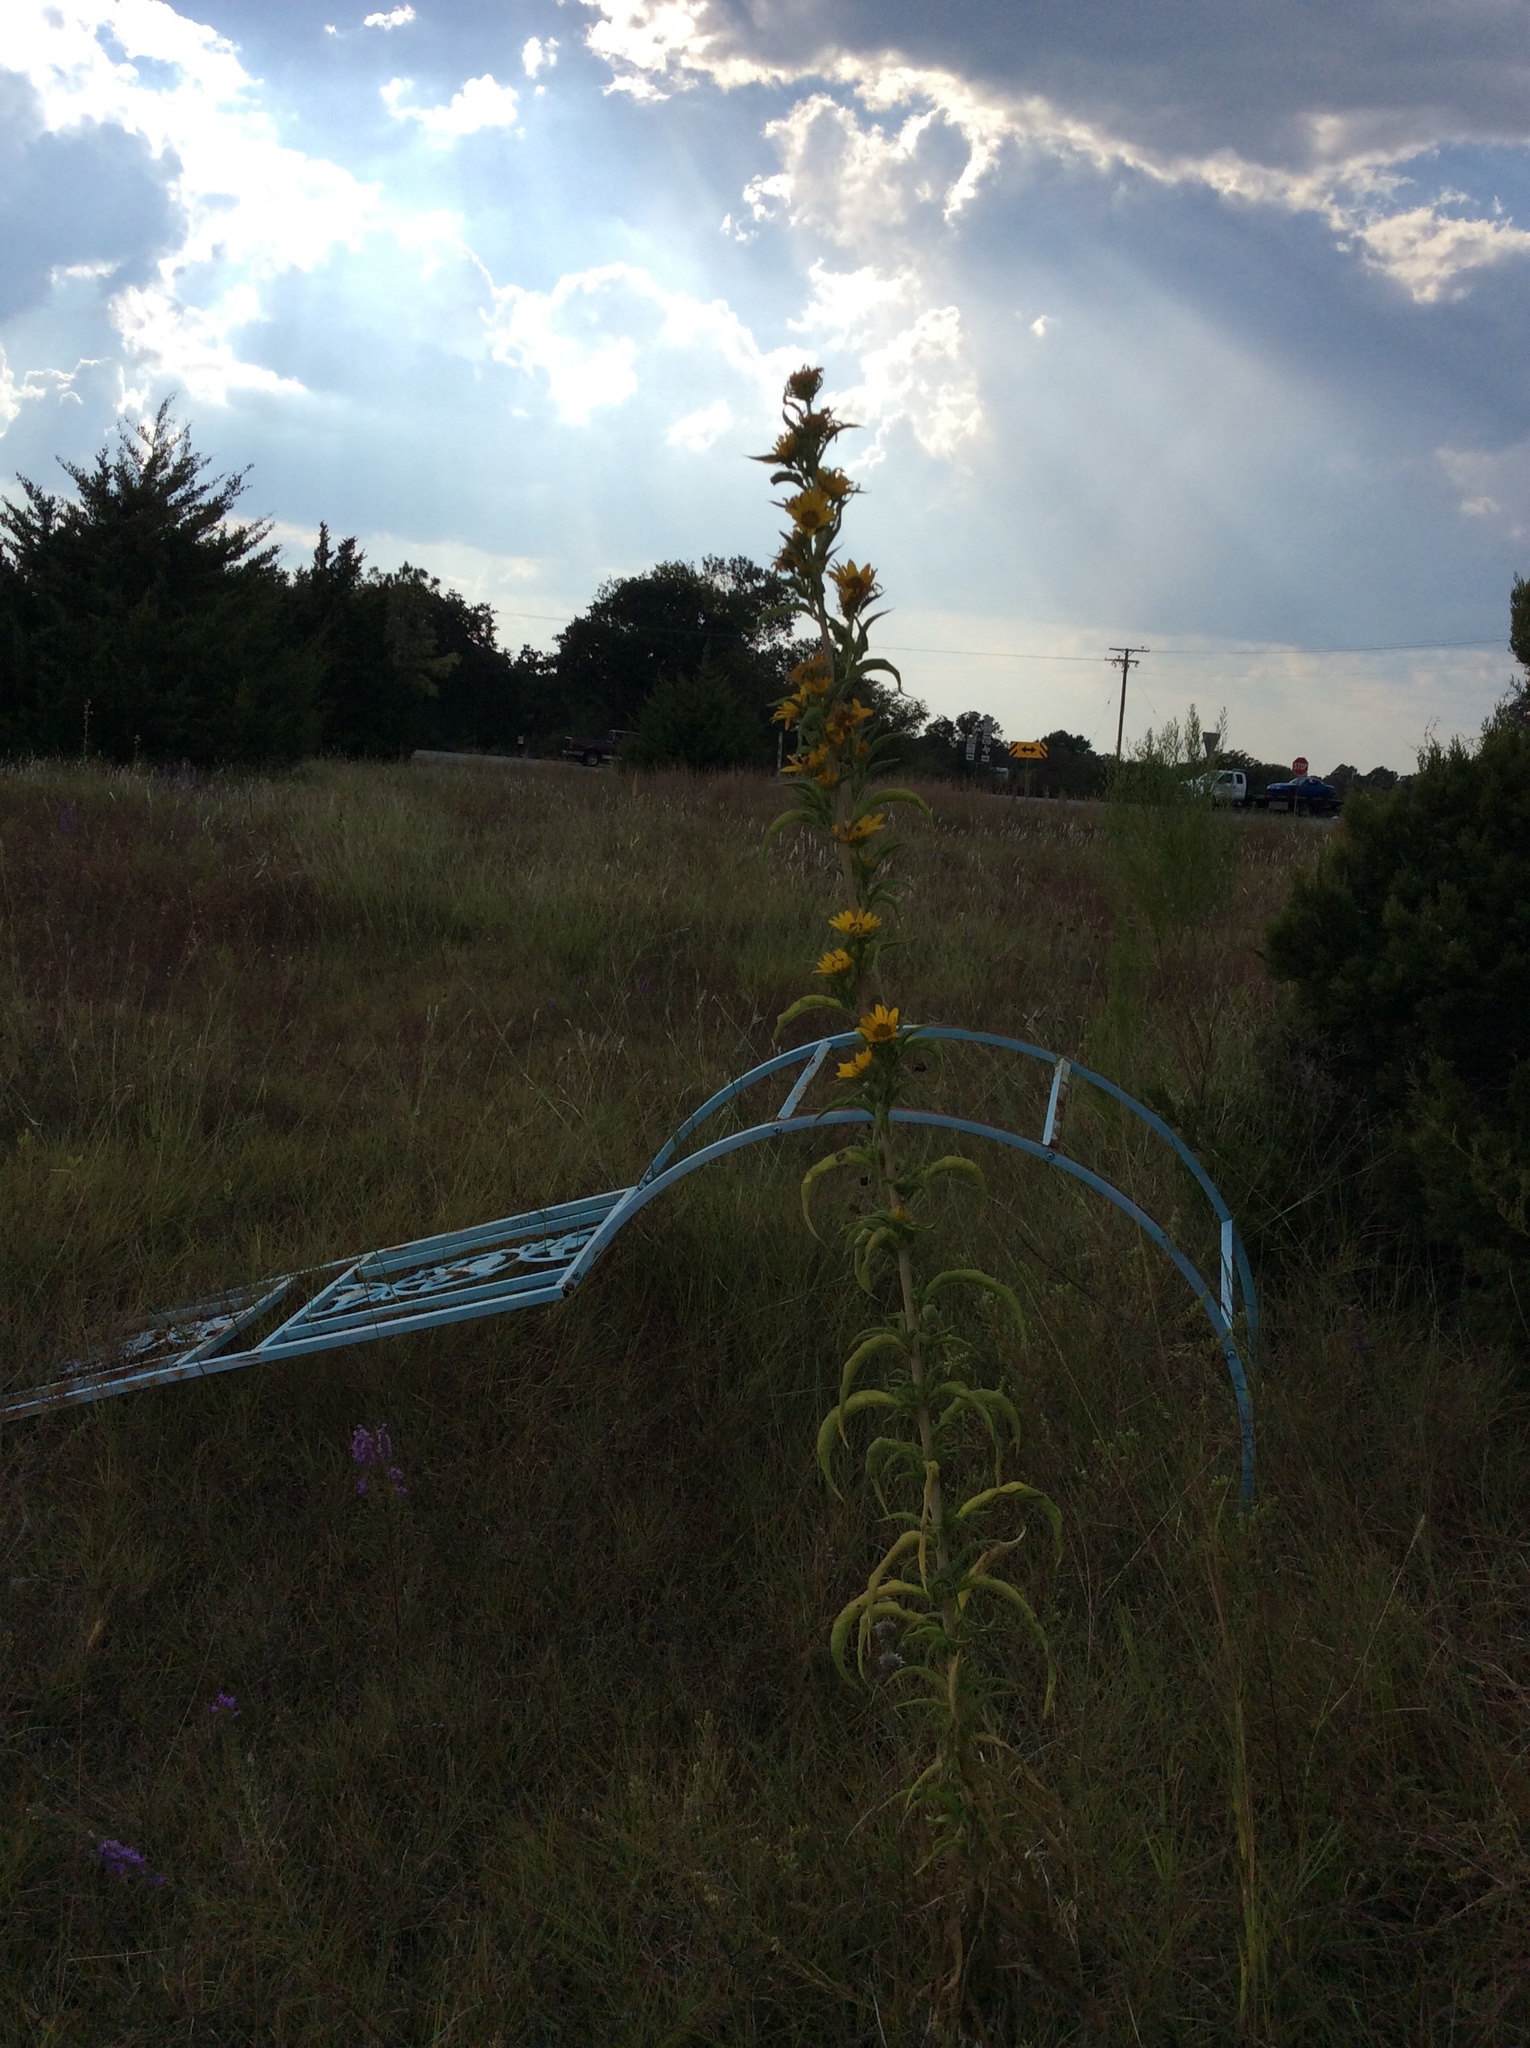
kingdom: Plantae
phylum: Tracheophyta
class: Magnoliopsida
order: Asterales
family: Asteraceae
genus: Helianthus
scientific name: Helianthus maximiliani
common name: Maximilian's sunflower
